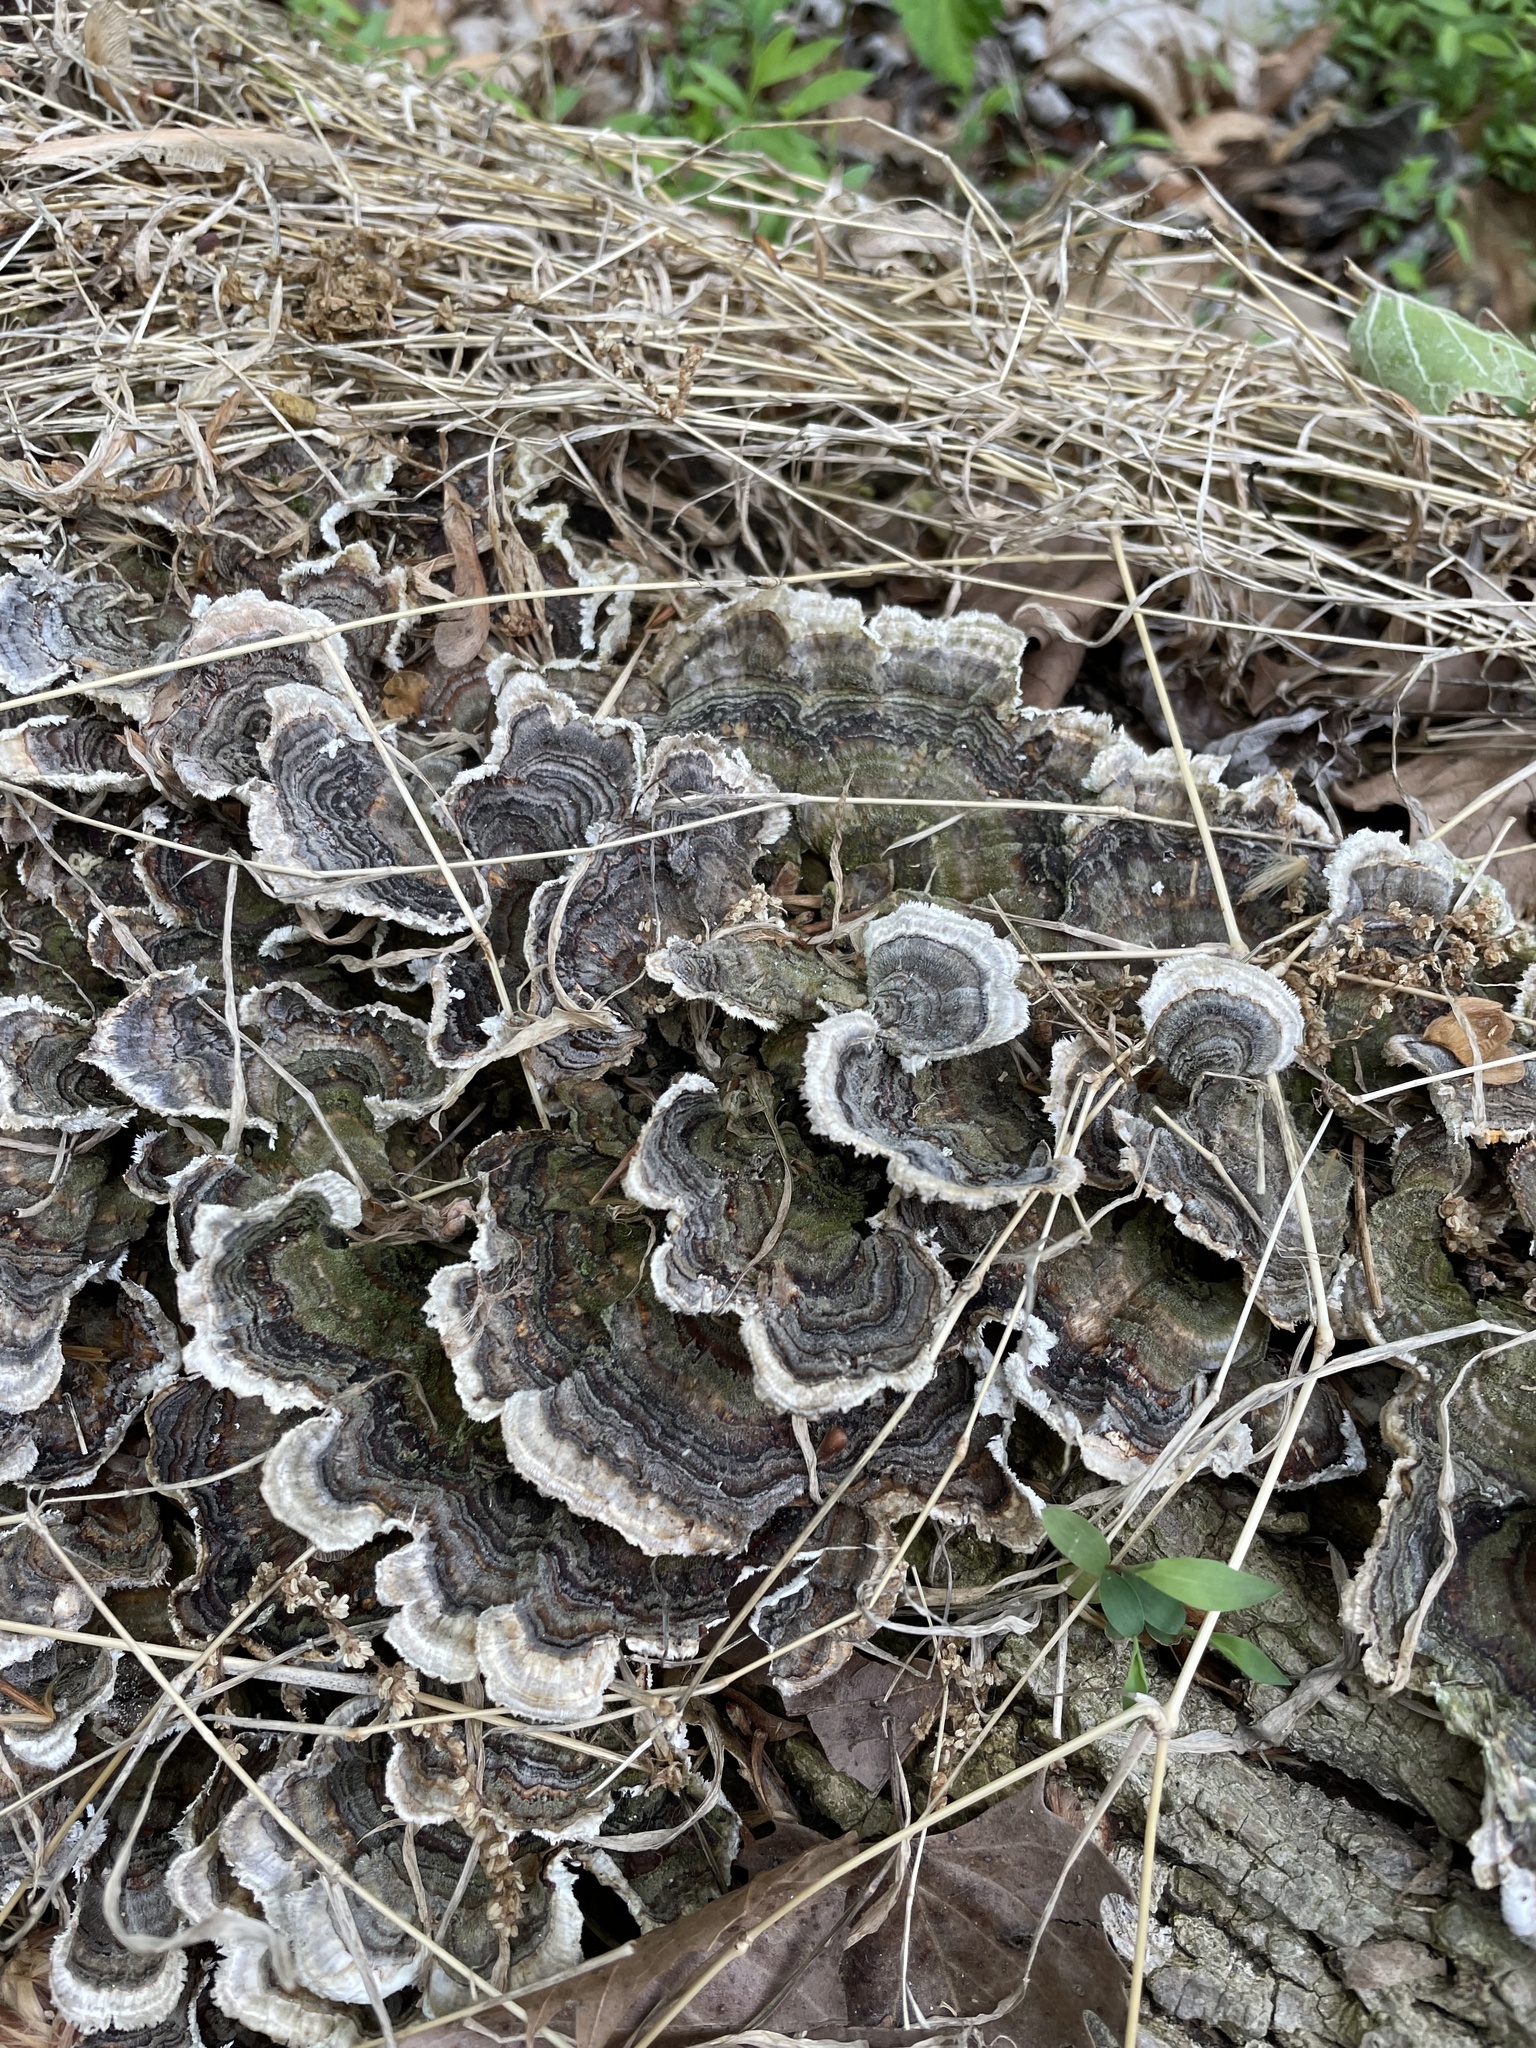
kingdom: Fungi
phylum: Basidiomycota
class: Agaricomycetes
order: Polyporales
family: Polyporaceae
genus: Trametes
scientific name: Trametes versicolor
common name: Turkeytail
